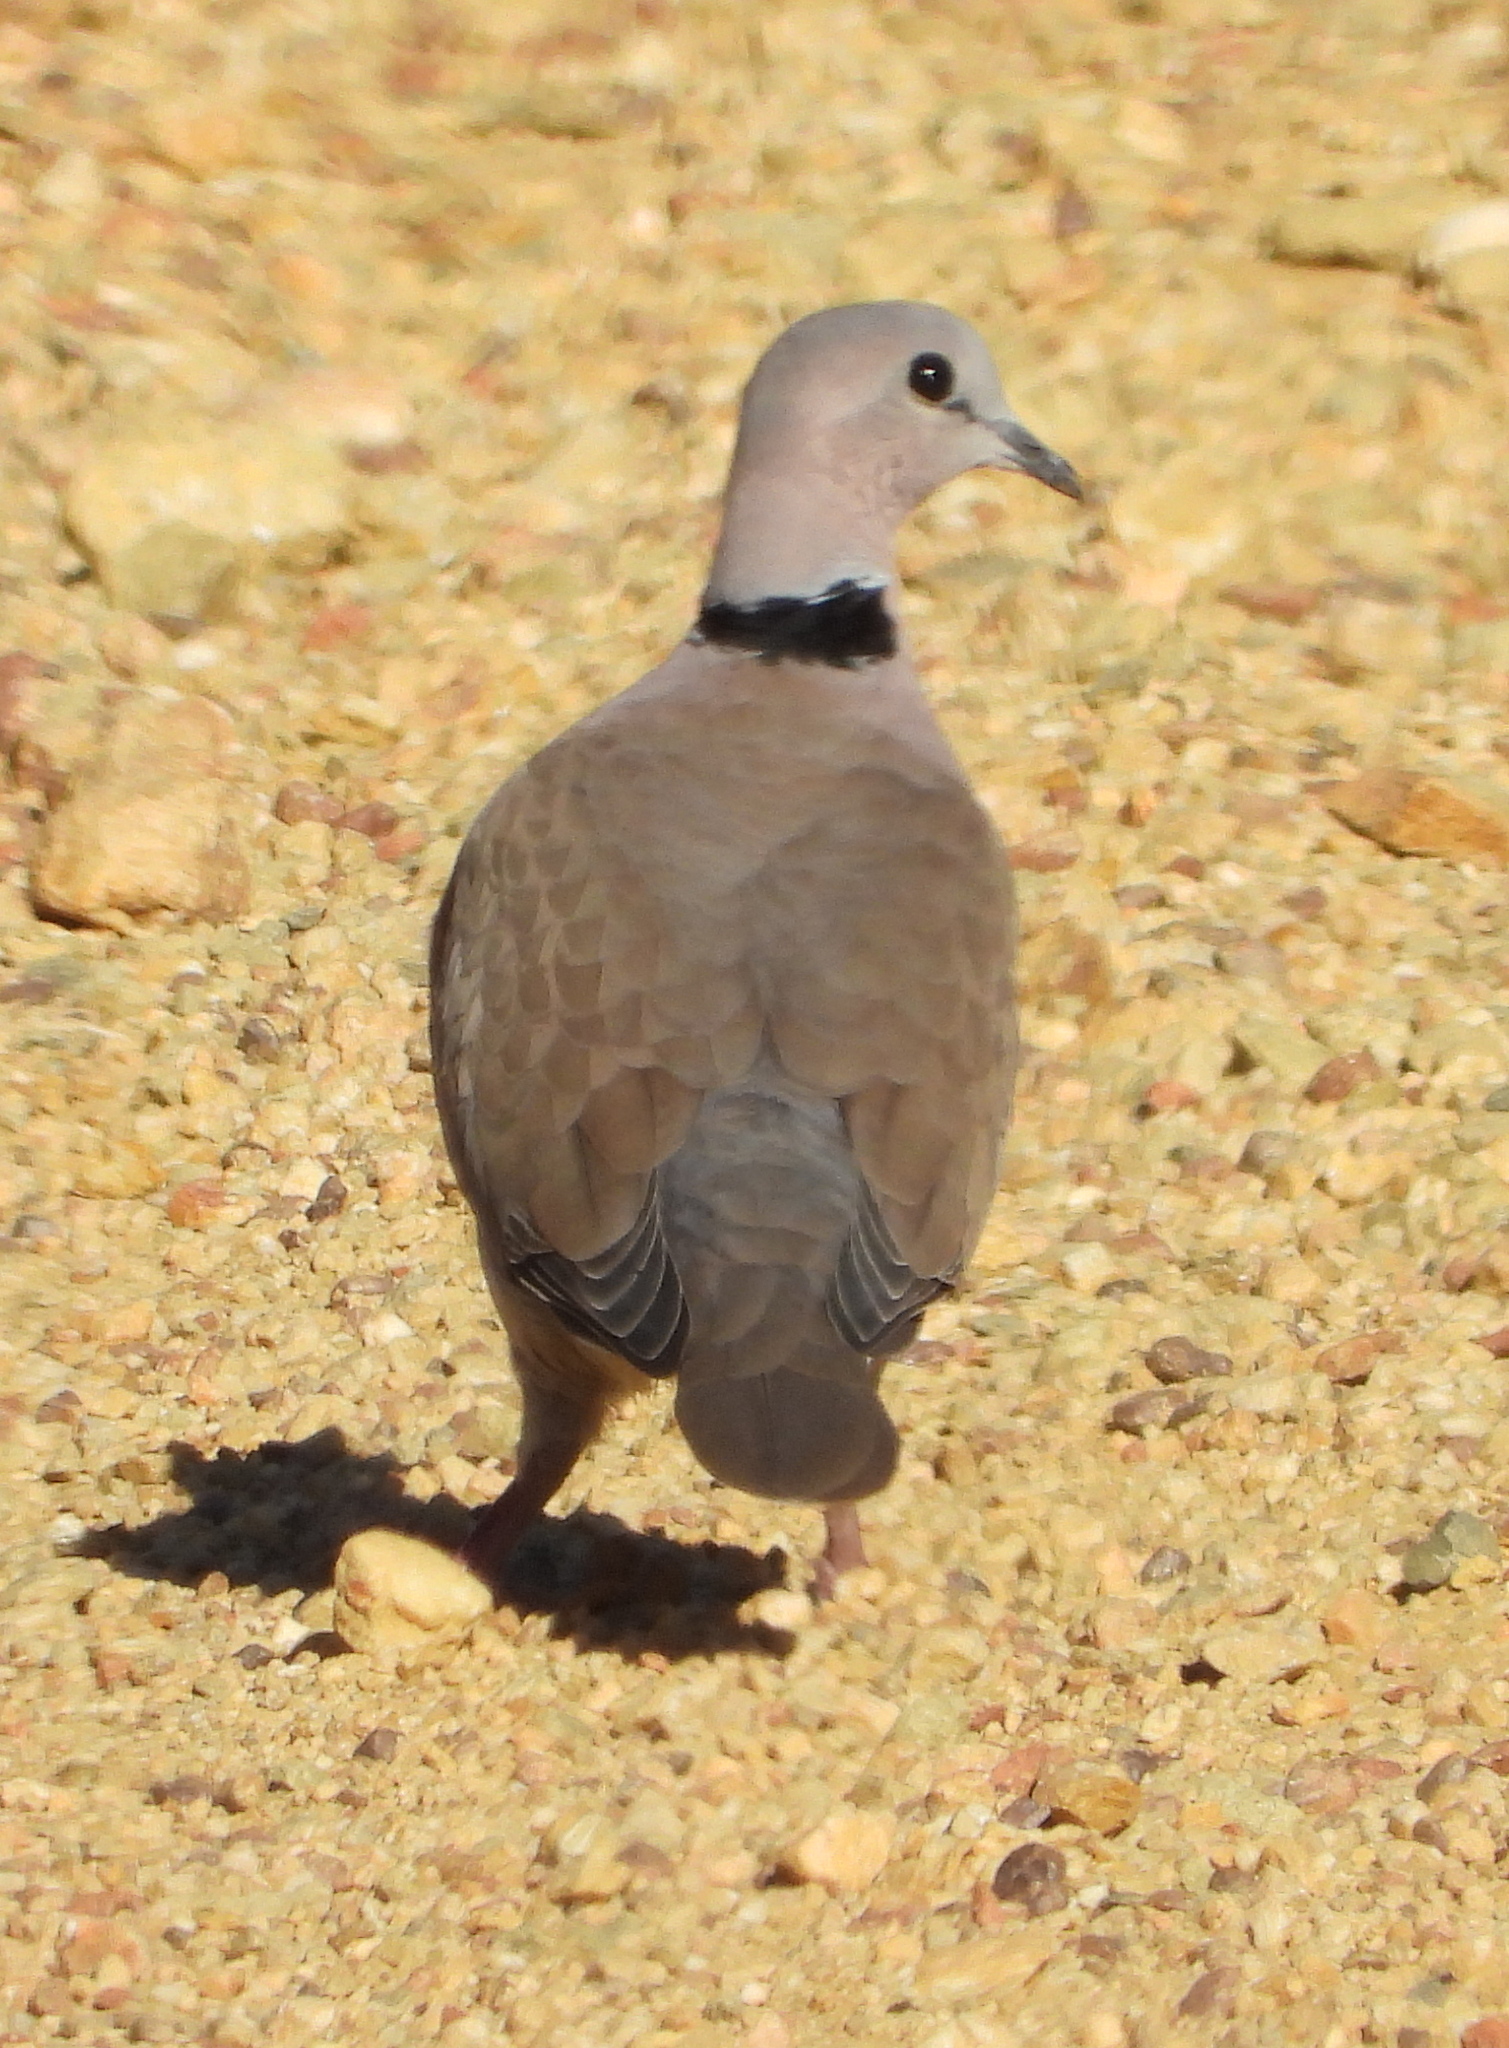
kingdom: Animalia
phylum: Chordata
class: Aves
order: Columbiformes
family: Columbidae
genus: Streptopelia
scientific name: Streptopelia capicola
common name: Ring-necked dove
